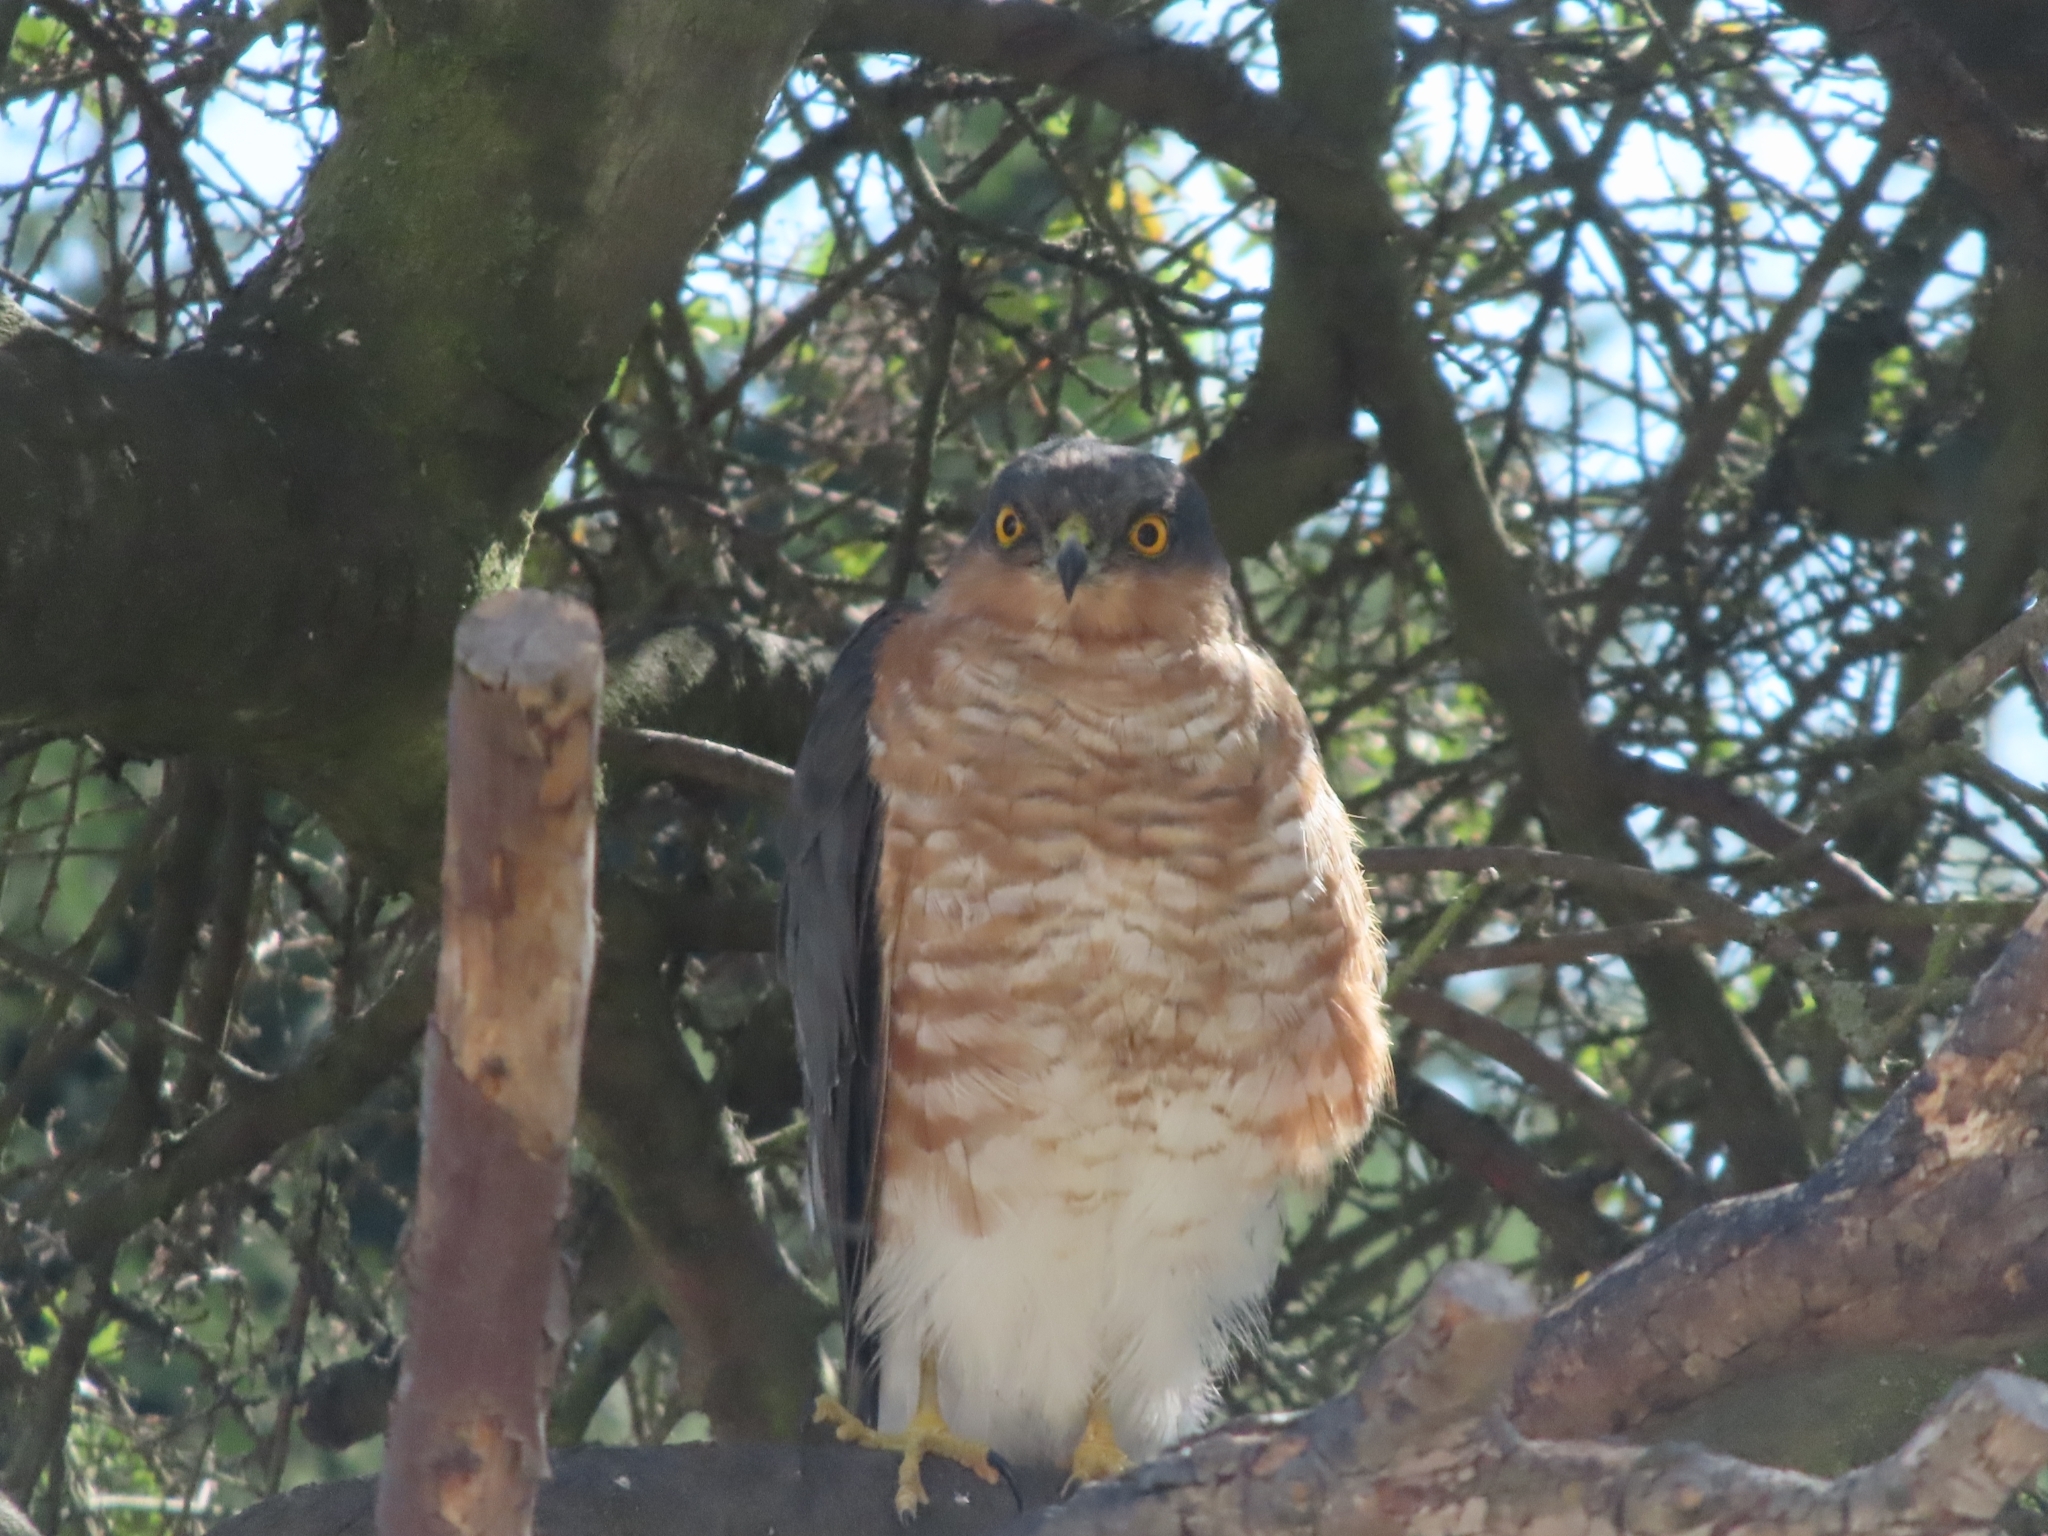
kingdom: Animalia
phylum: Chordata
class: Aves
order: Accipitriformes
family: Accipitridae
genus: Accipiter
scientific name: Accipiter nisus
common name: Eurasian sparrowhawk
